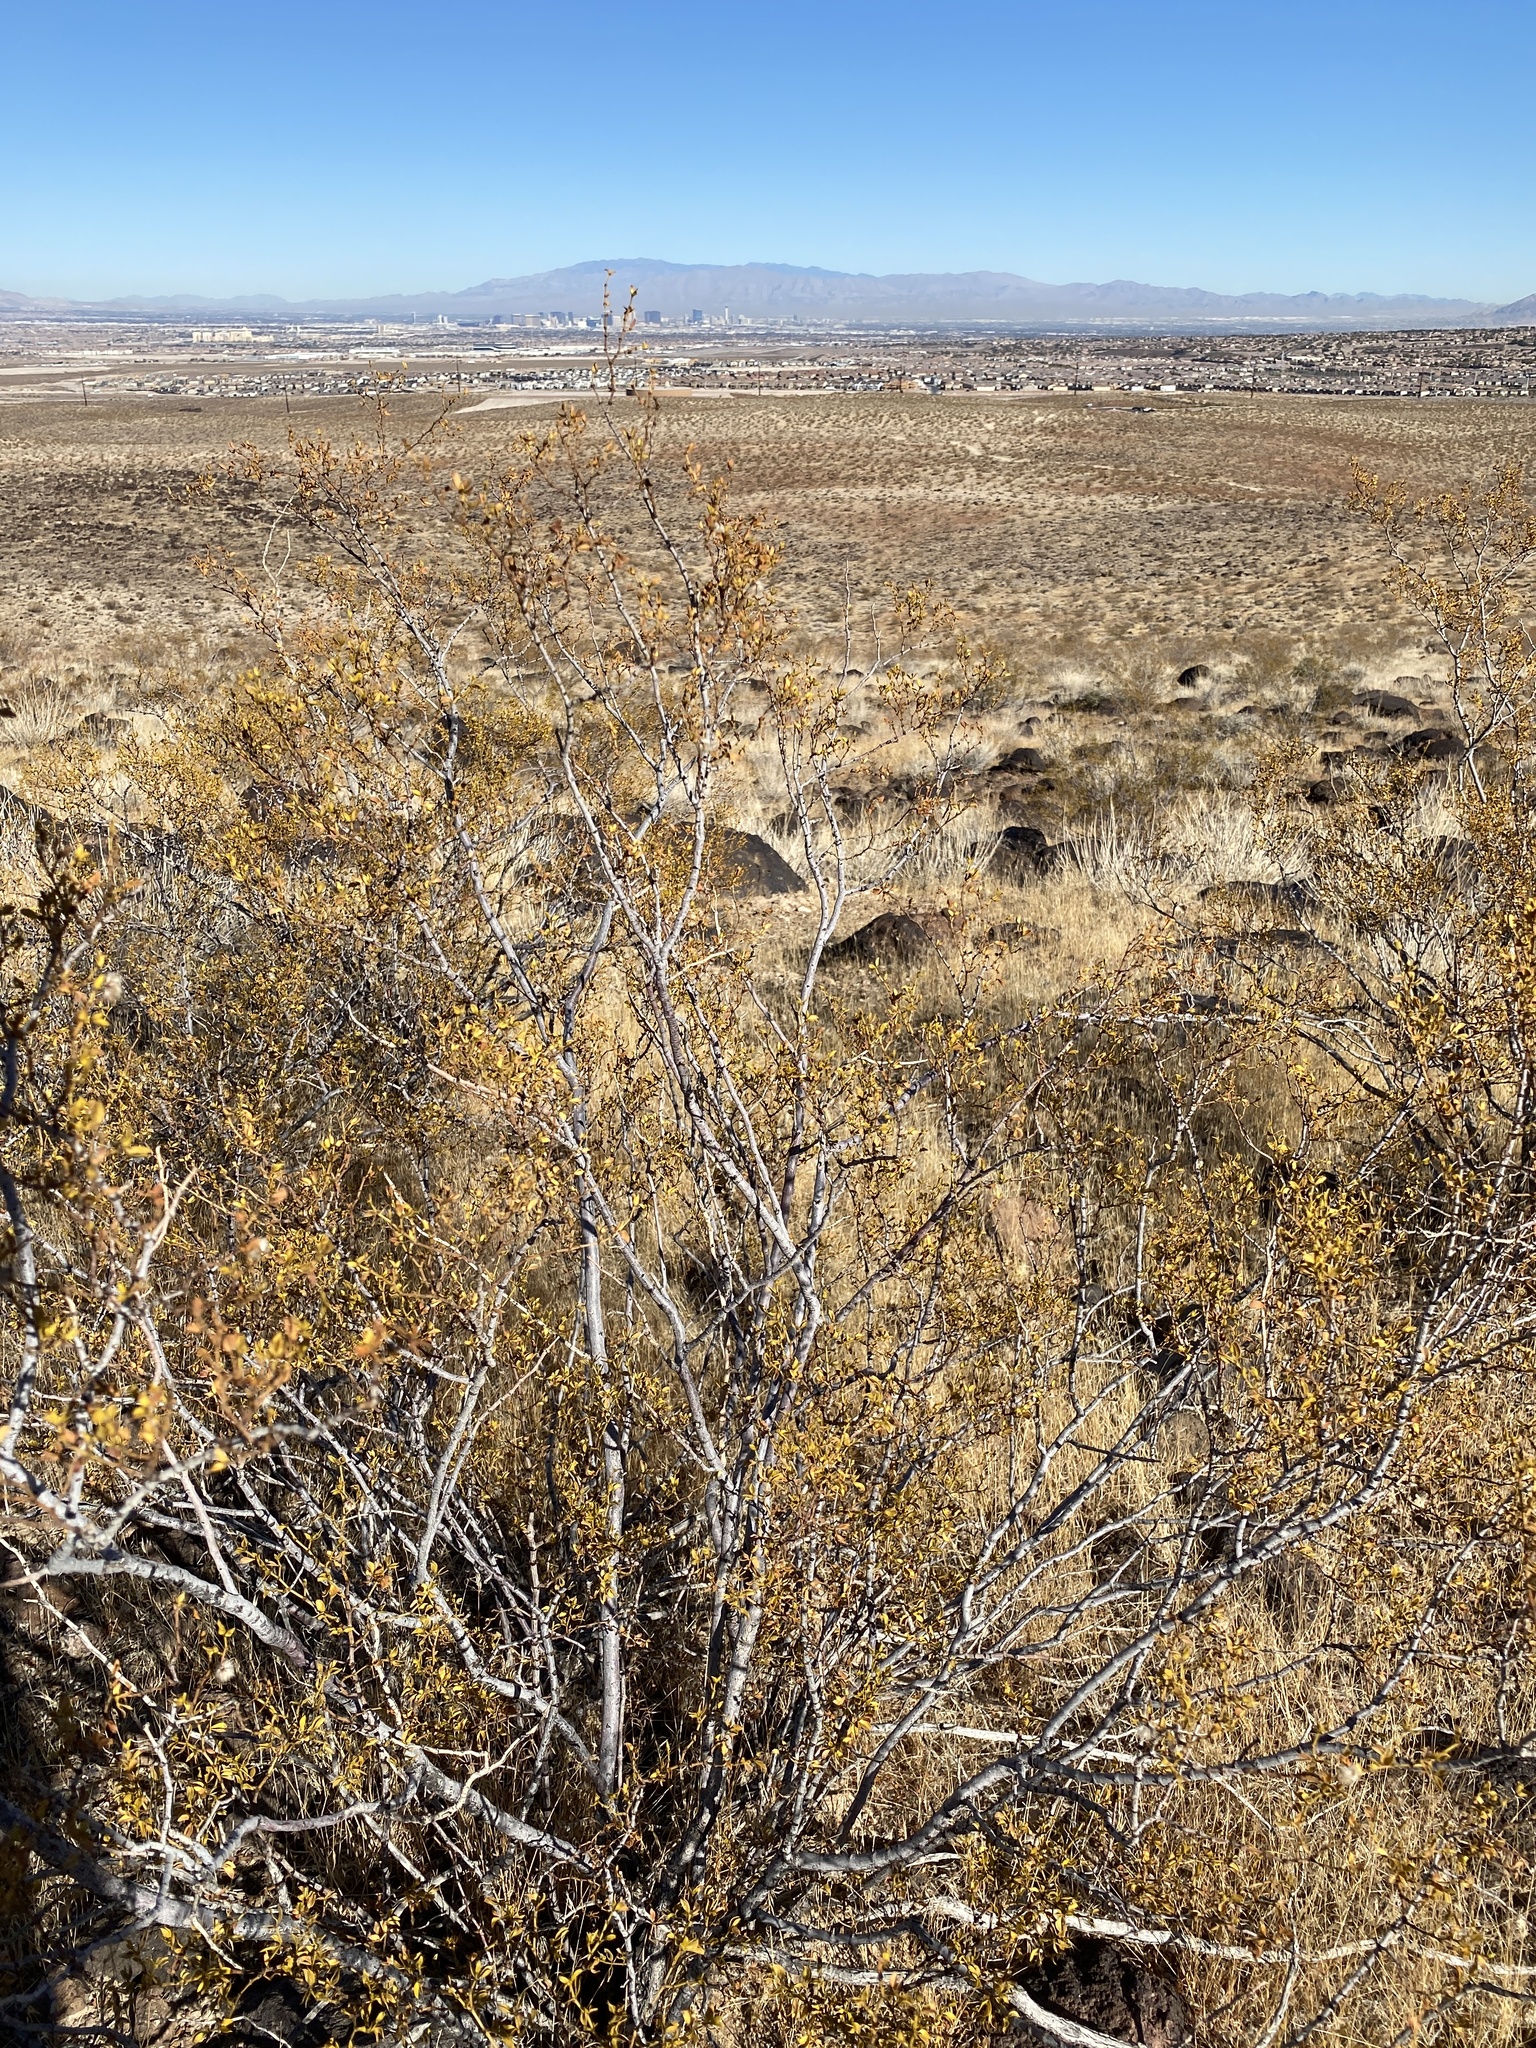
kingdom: Plantae
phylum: Tracheophyta
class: Magnoliopsida
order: Zygophyllales
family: Zygophyllaceae
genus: Larrea
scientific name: Larrea tridentata
